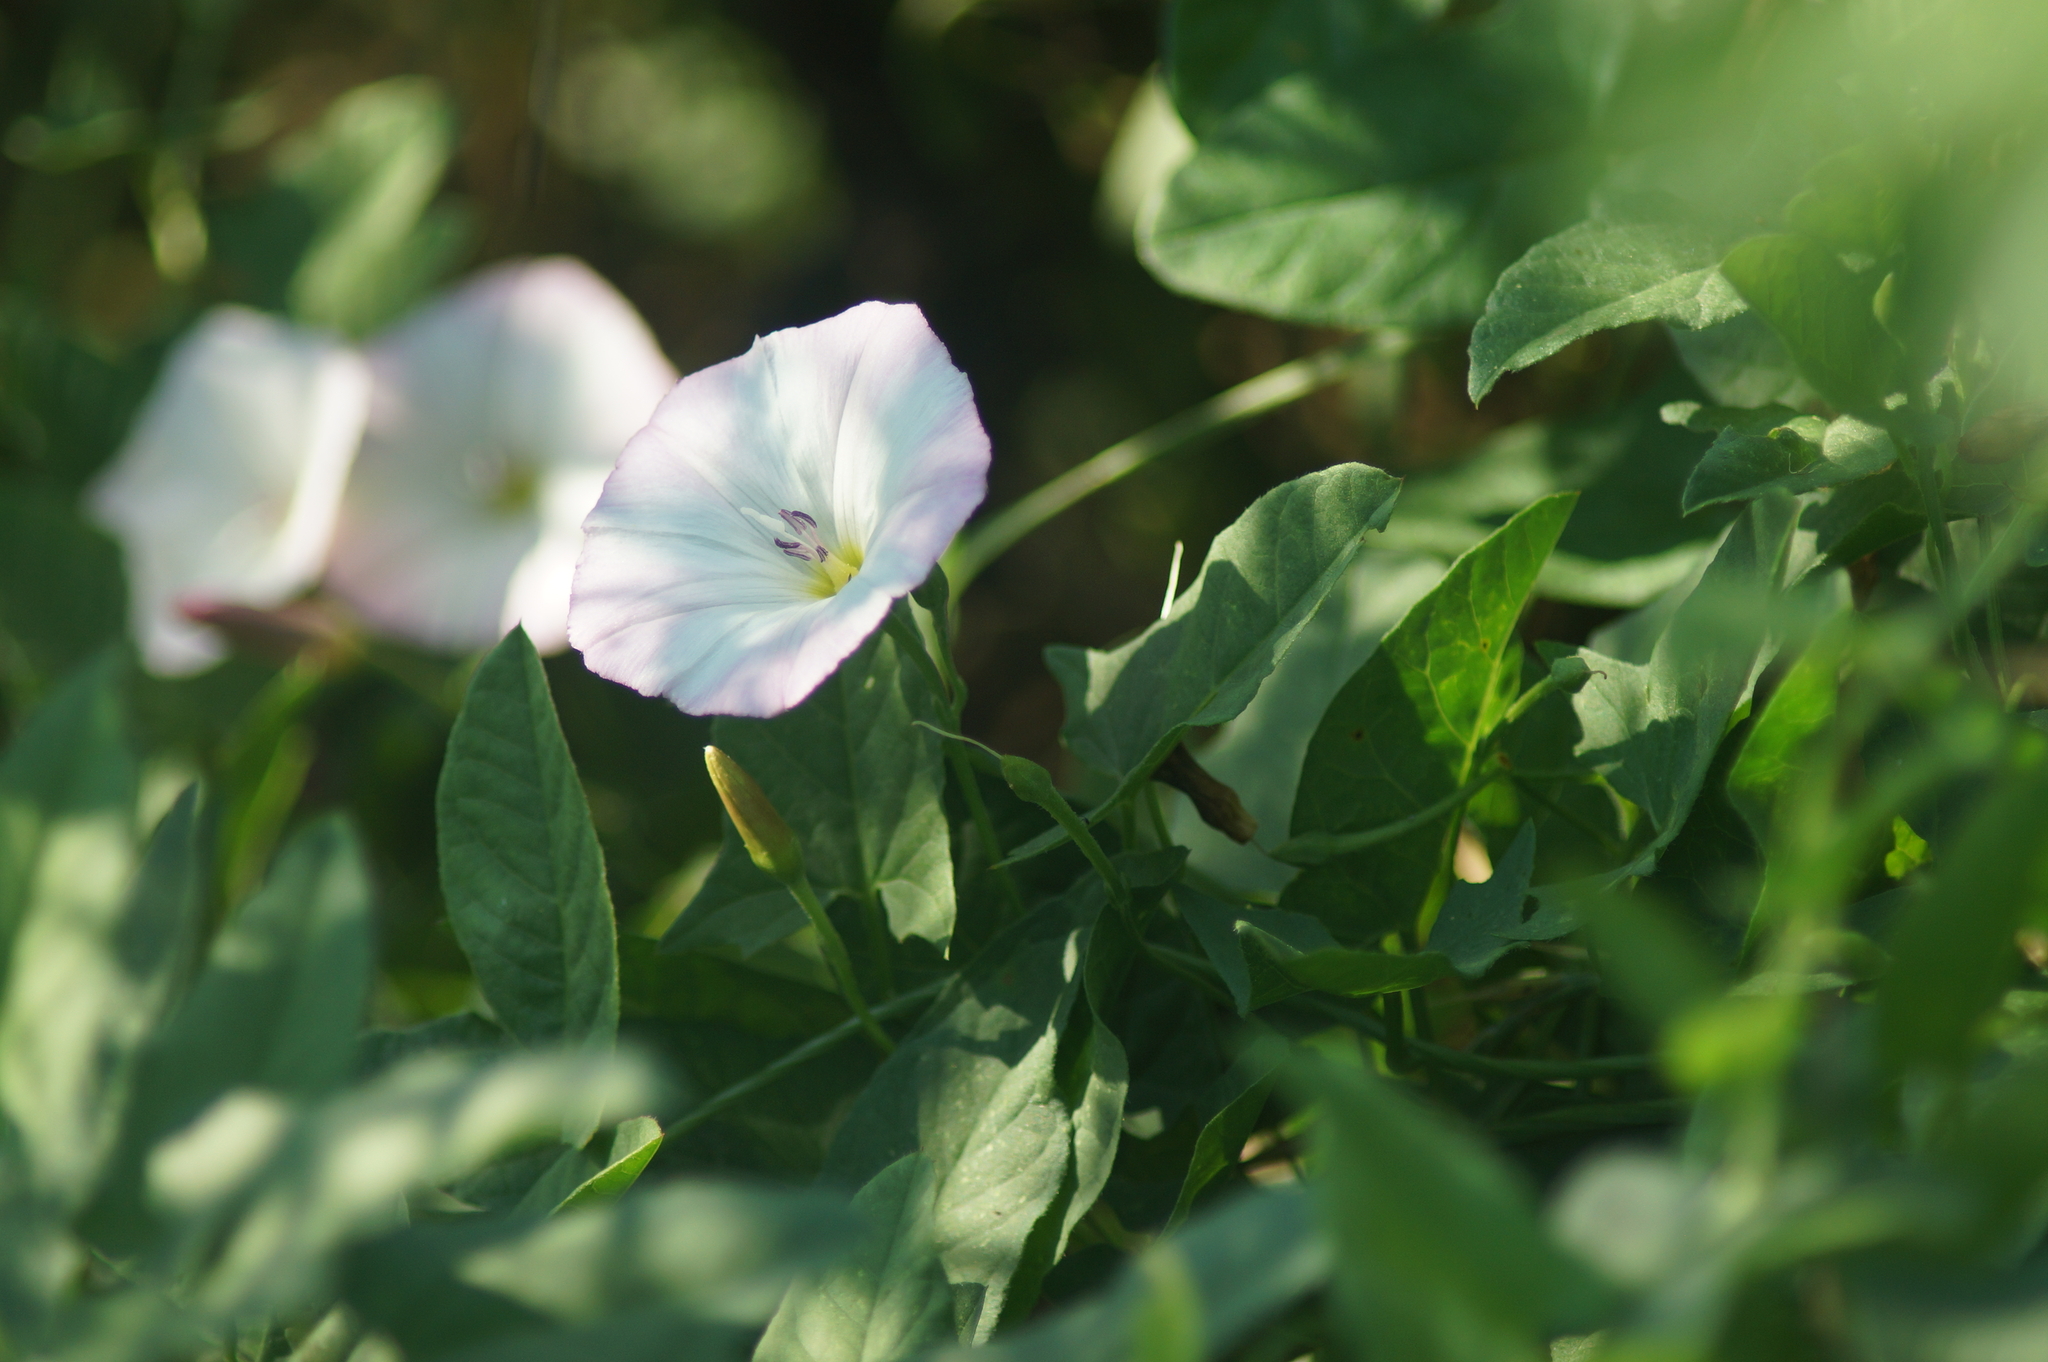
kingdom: Plantae
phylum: Tracheophyta
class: Magnoliopsida
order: Solanales
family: Convolvulaceae
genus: Convolvulus
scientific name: Convolvulus arvensis
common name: Field bindweed
